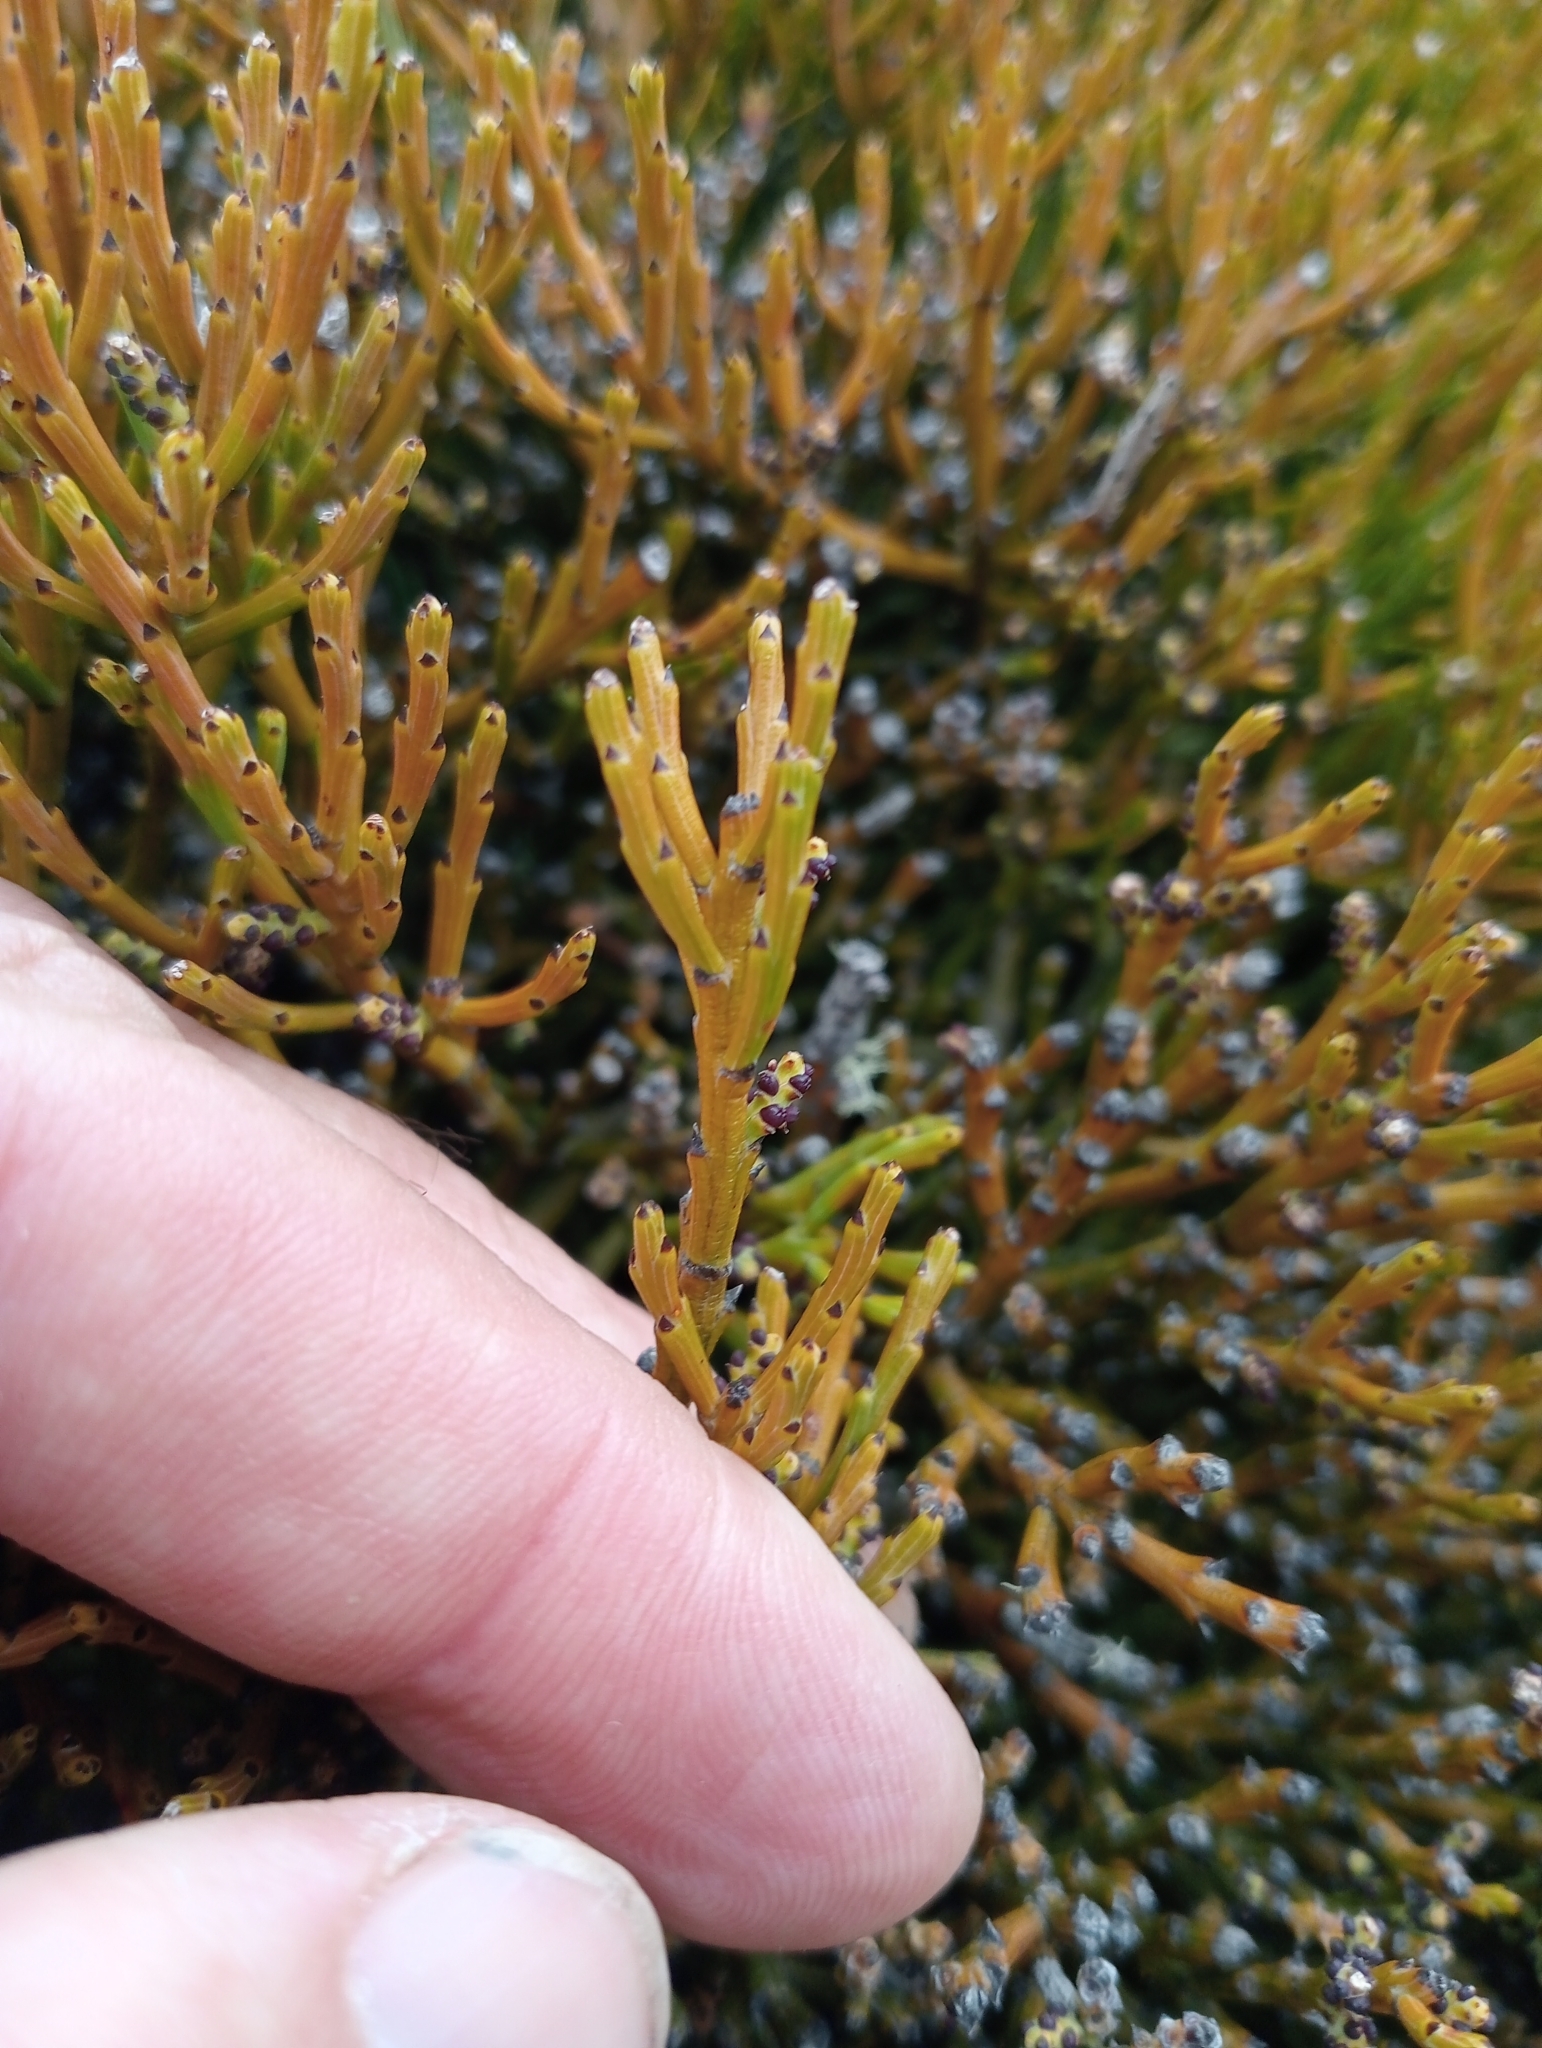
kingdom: Plantae
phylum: Tracheophyta
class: Magnoliopsida
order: Santalales
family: Santalaceae
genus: Exocarpos
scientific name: Exocarpos bidwillii
